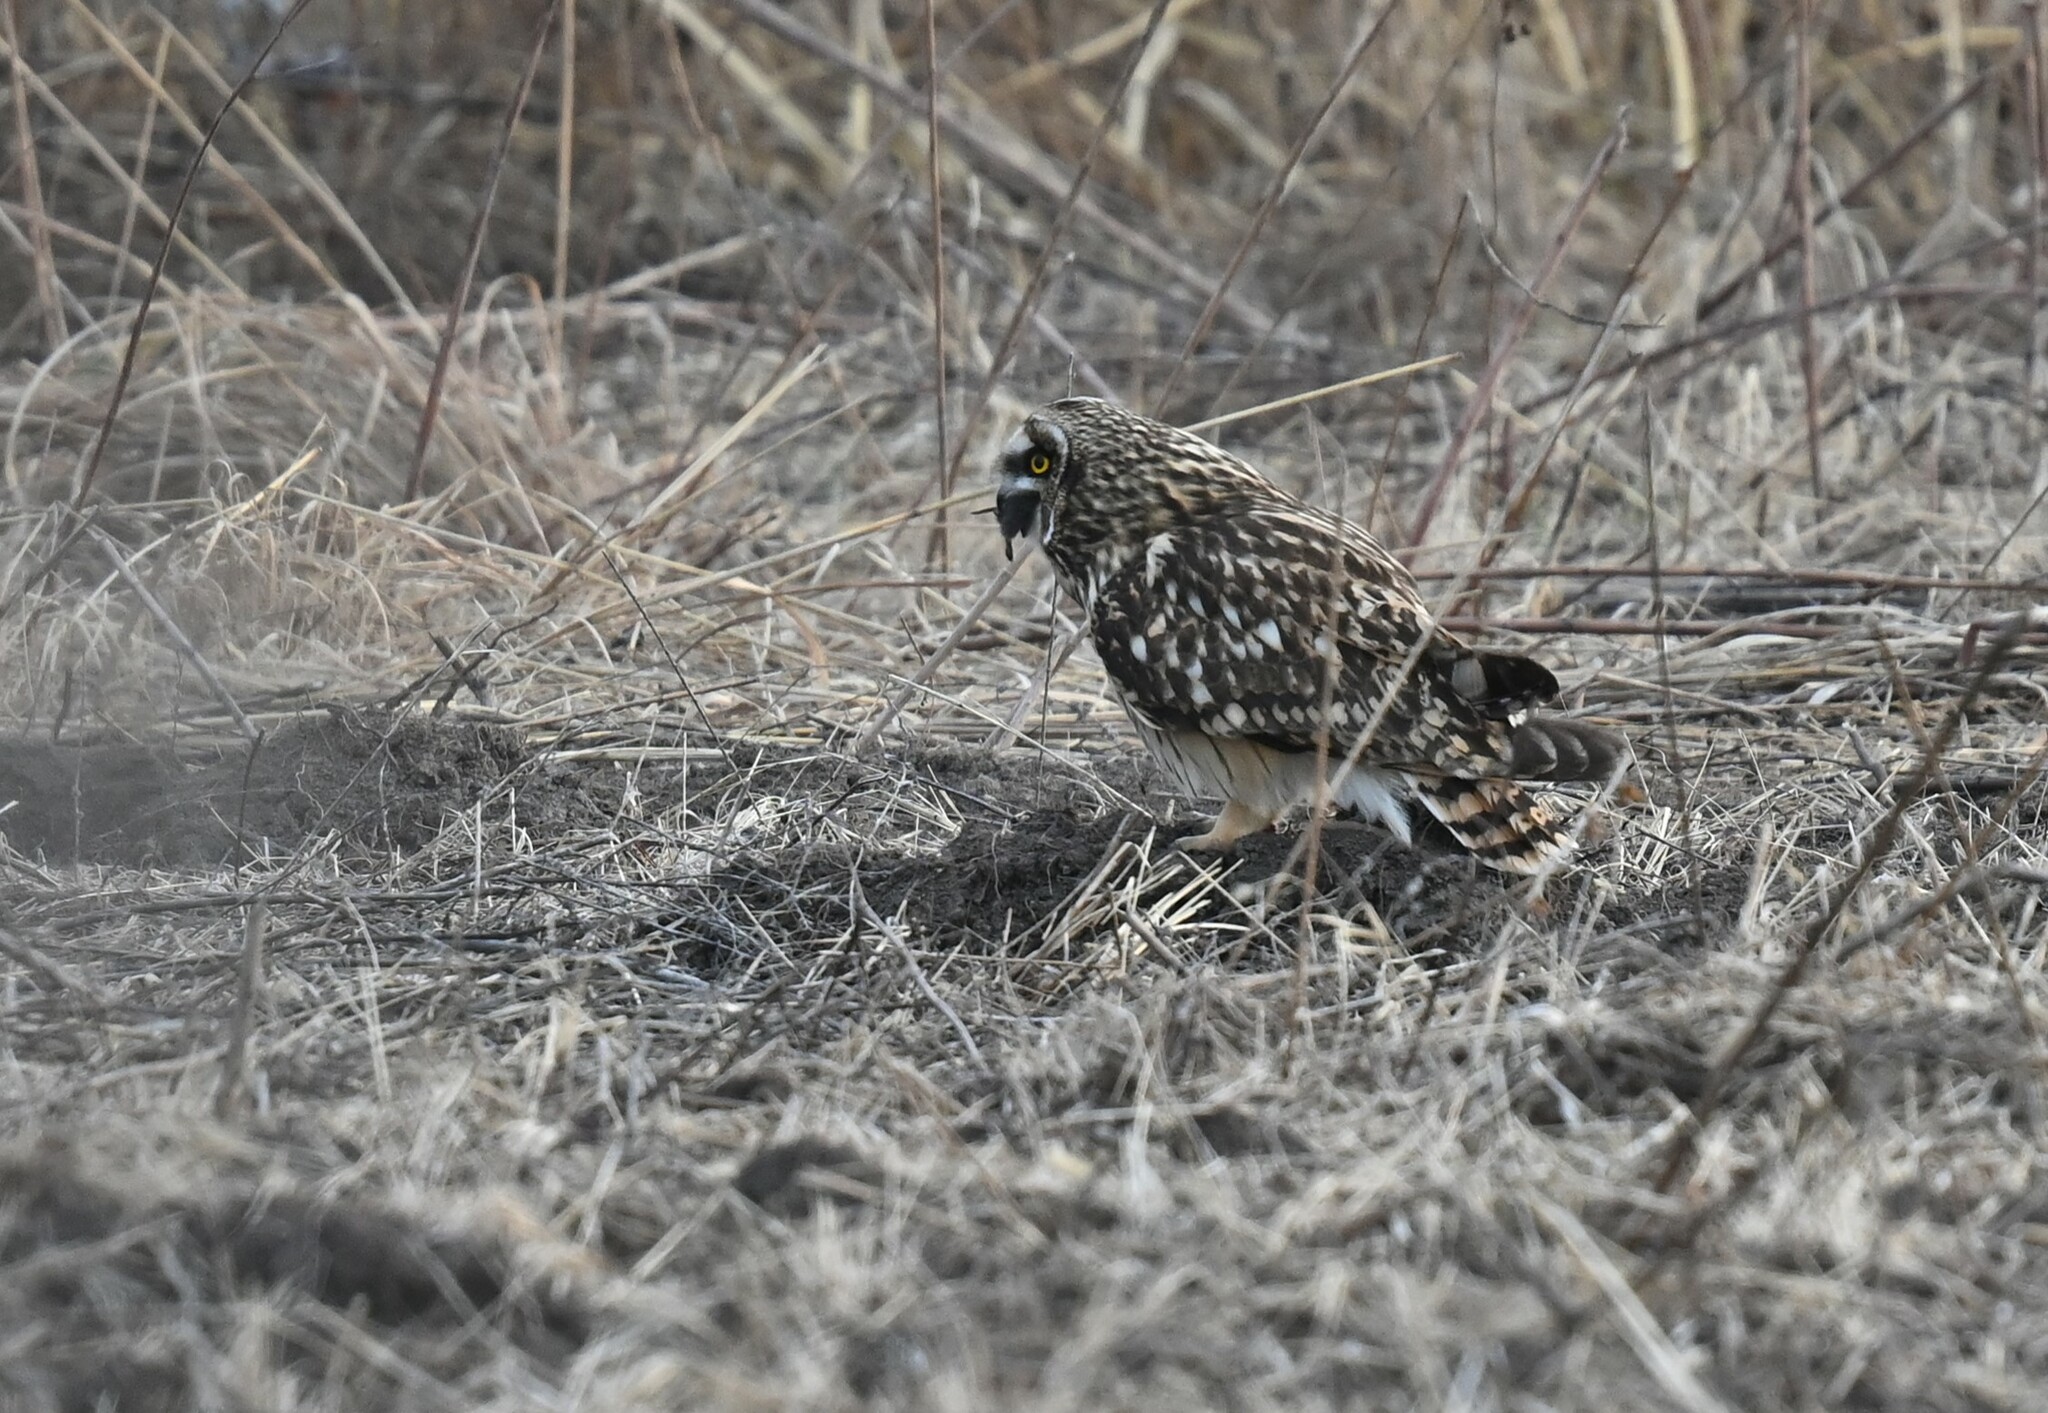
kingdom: Animalia
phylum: Chordata
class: Aves
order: Strigiformes
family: Strigidae
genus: Asio
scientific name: Asio flammeus
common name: Short-eared owl
